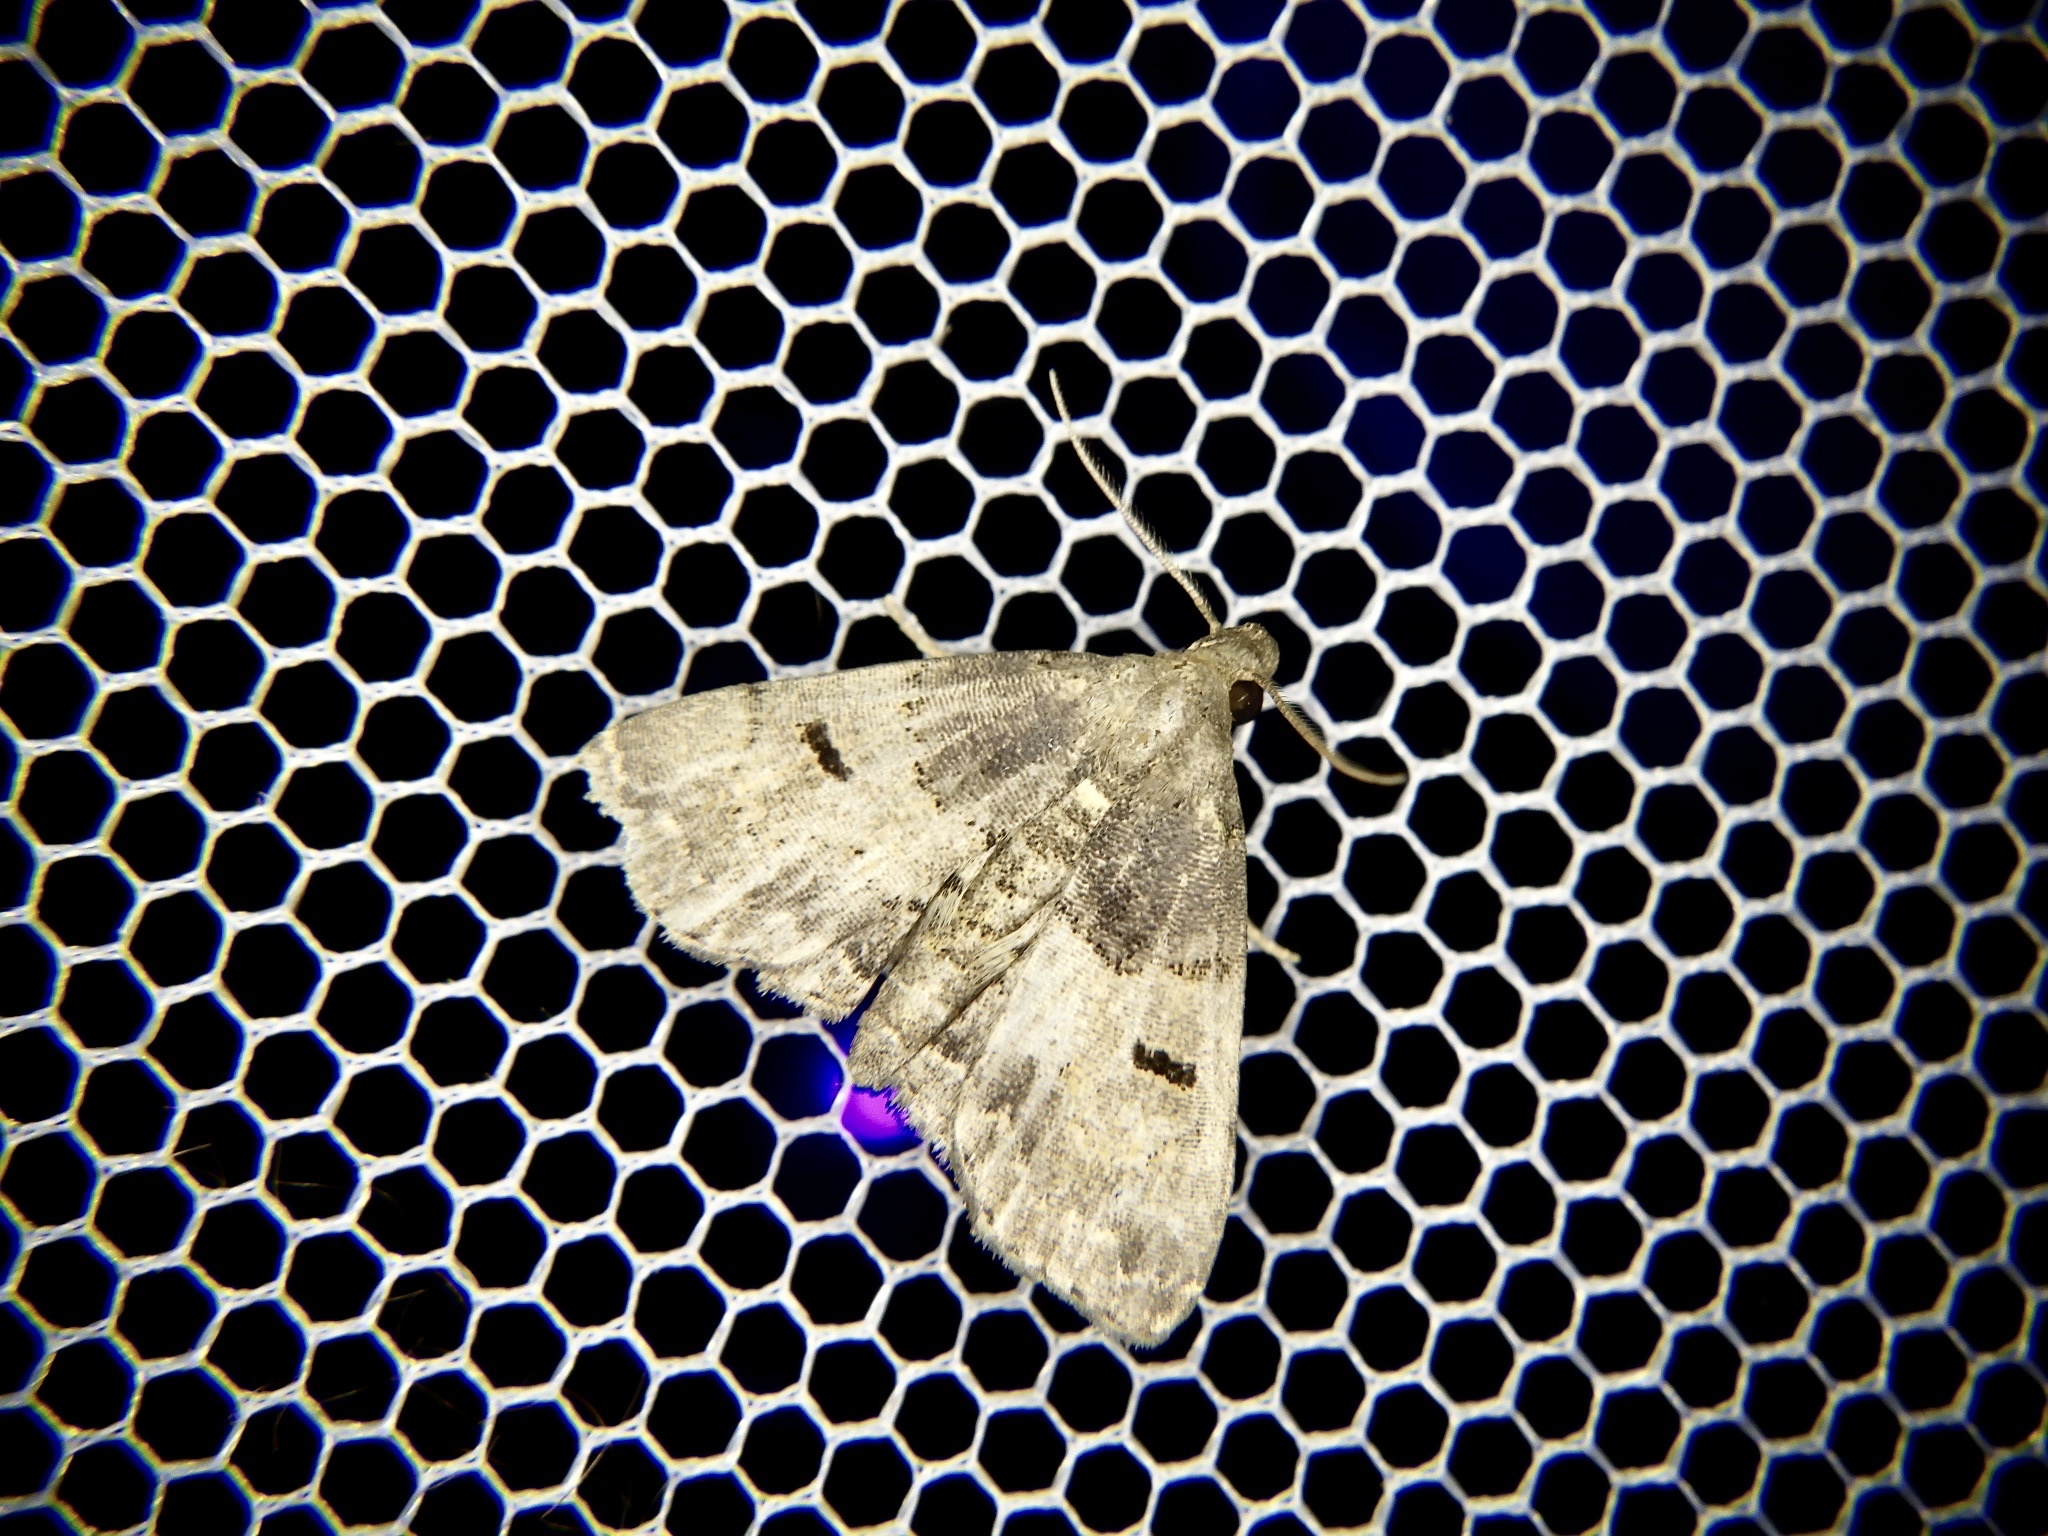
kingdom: Animalia
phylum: Arthropoda
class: Insecta
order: Lepidoptera
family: Erebidae
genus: Sinarella
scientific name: Sinarella
